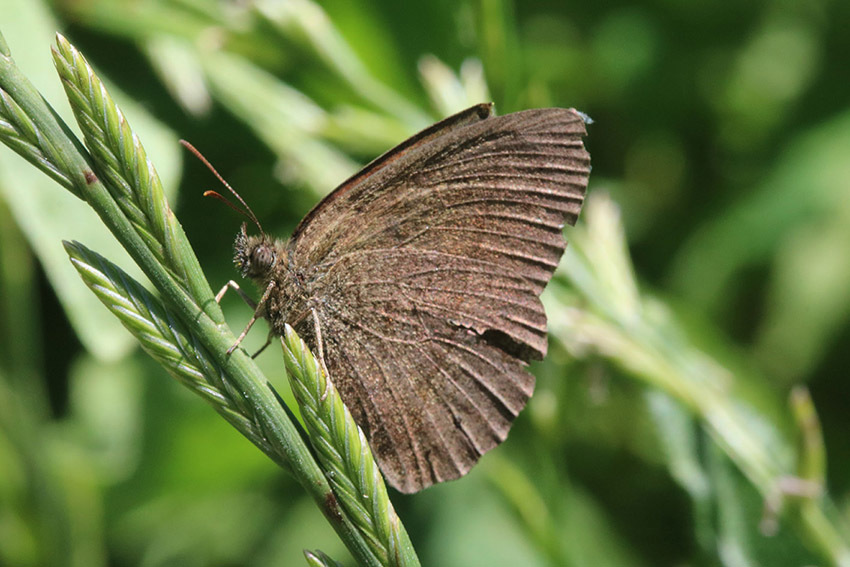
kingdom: Animalia
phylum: Arthropoda
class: Insecta
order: Lepidoptera
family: Nymphalidae
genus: Yphthimoides
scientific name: Yphthimoides celmis
